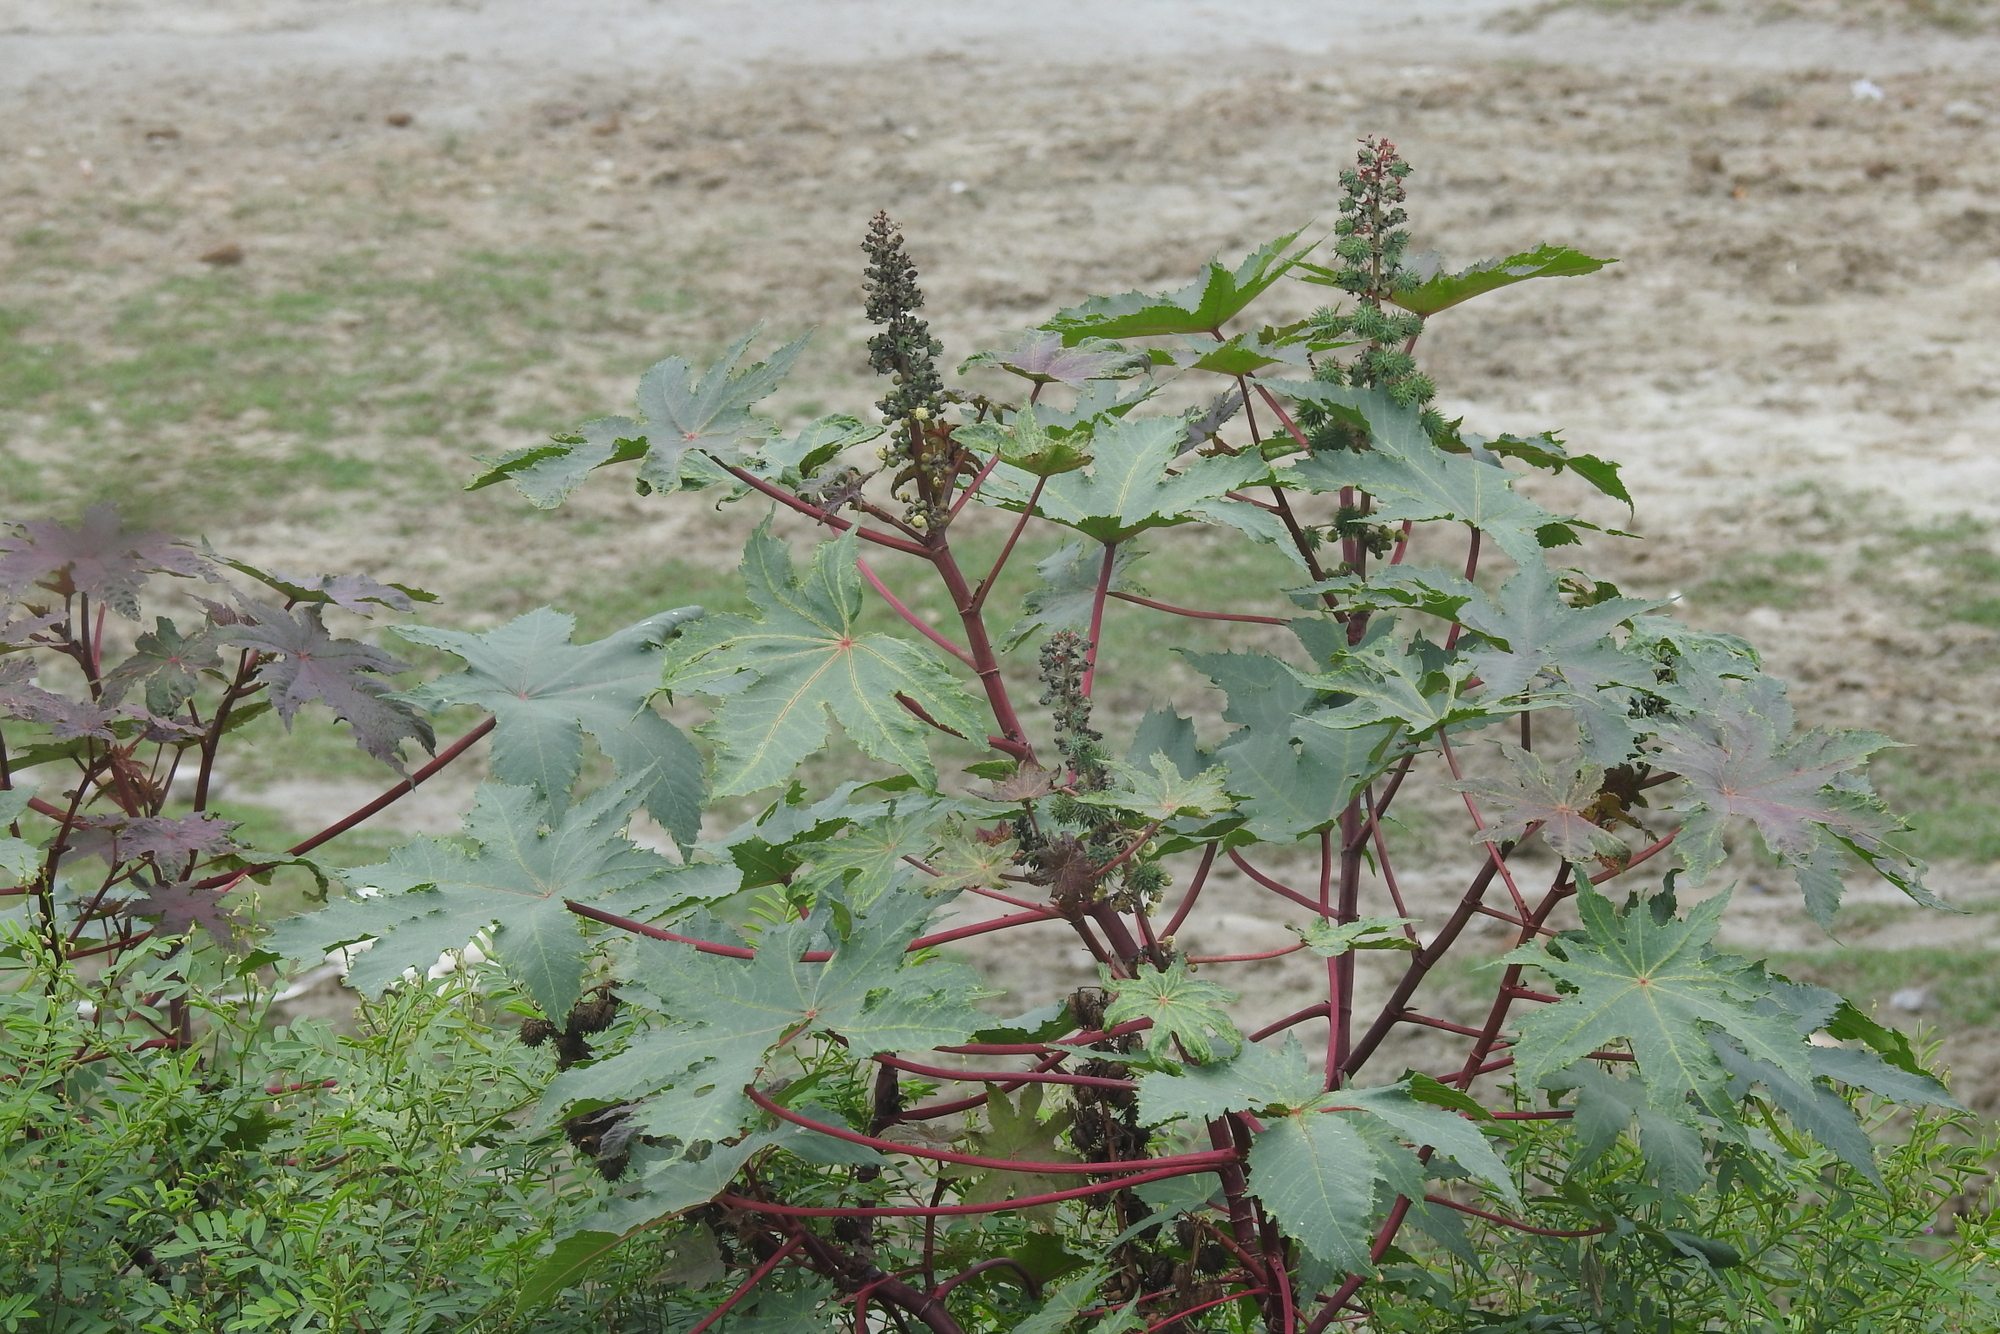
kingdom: Plantae
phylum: Tracheophyta
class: Magnoliopsida
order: Malpighiales
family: Euphorbiaceae
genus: Ricinus
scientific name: Ricinus communis
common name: Castor-oil-plant
